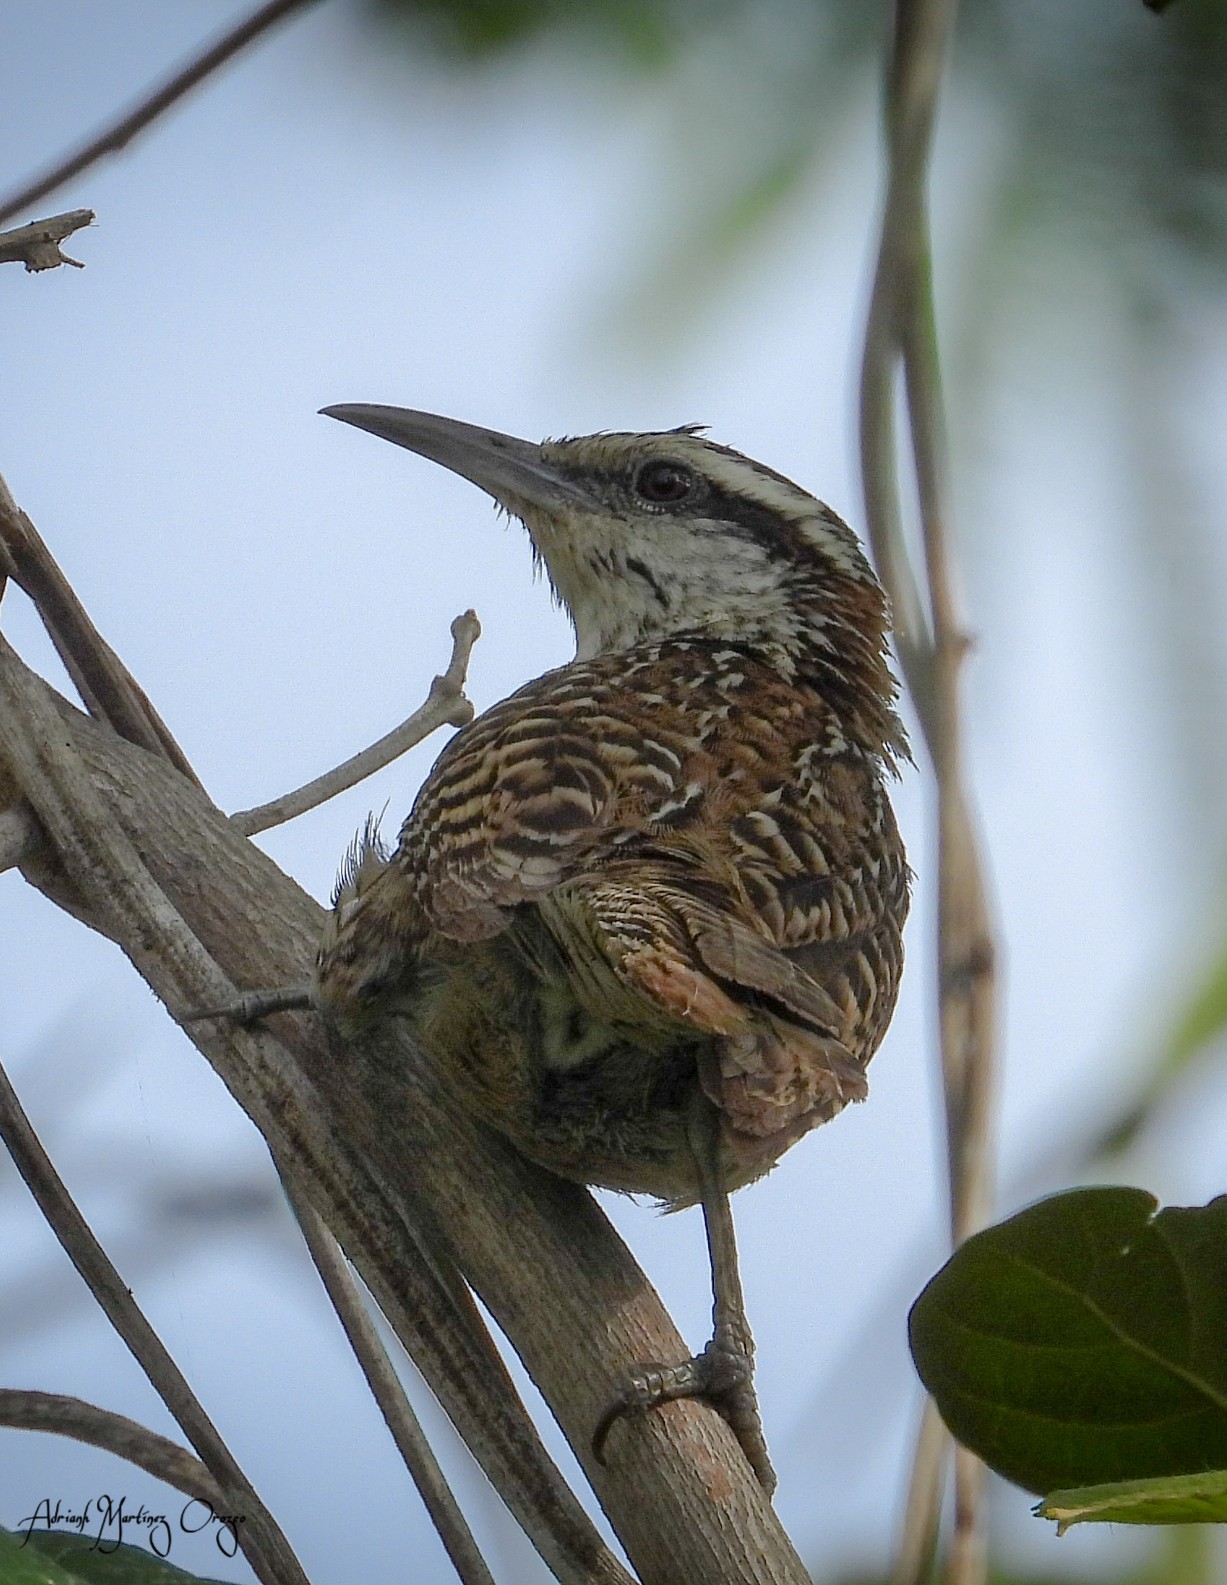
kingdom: Animalia
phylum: Chordata
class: Aves
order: Passeriformes
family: Troglodytidae
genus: Campylorhynchus
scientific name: Campylorhynchus rufinucha
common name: Rufous-naped wren
